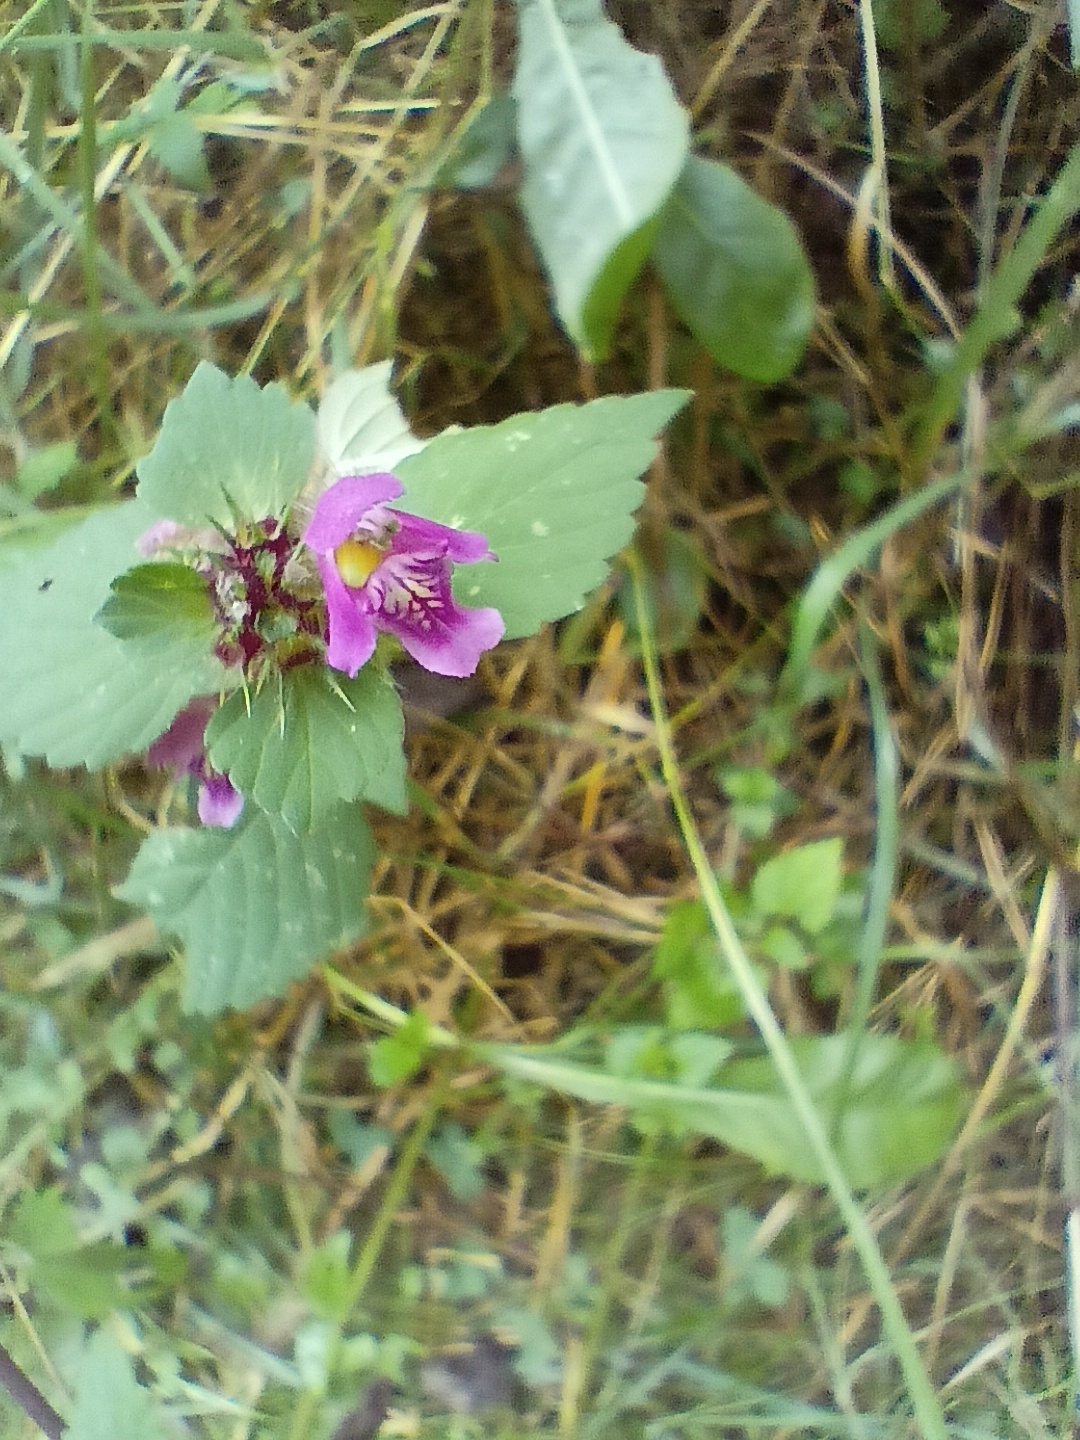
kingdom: Plantae
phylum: Tracheophyta
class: Magnoliopsida
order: Lamiales
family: Lamiaceae
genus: Galeopsis
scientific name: Galeopsis pubescens
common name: Downy hemp-nettle
